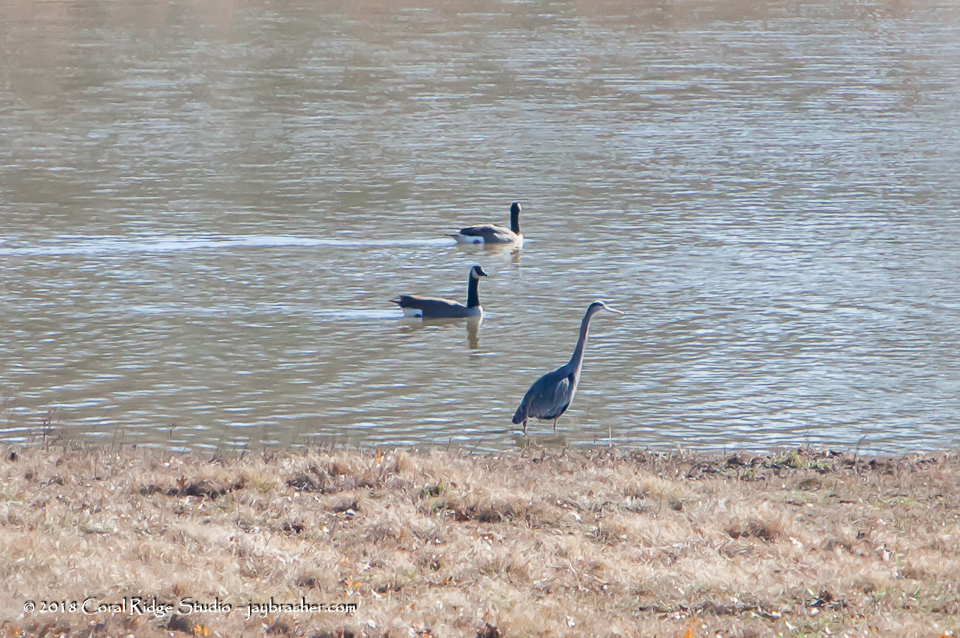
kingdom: Animalia
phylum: Chordata
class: Aves
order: Pelecaniformes
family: Ardeidae
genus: Ardea
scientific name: Ardea herodias
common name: Great blue heron
